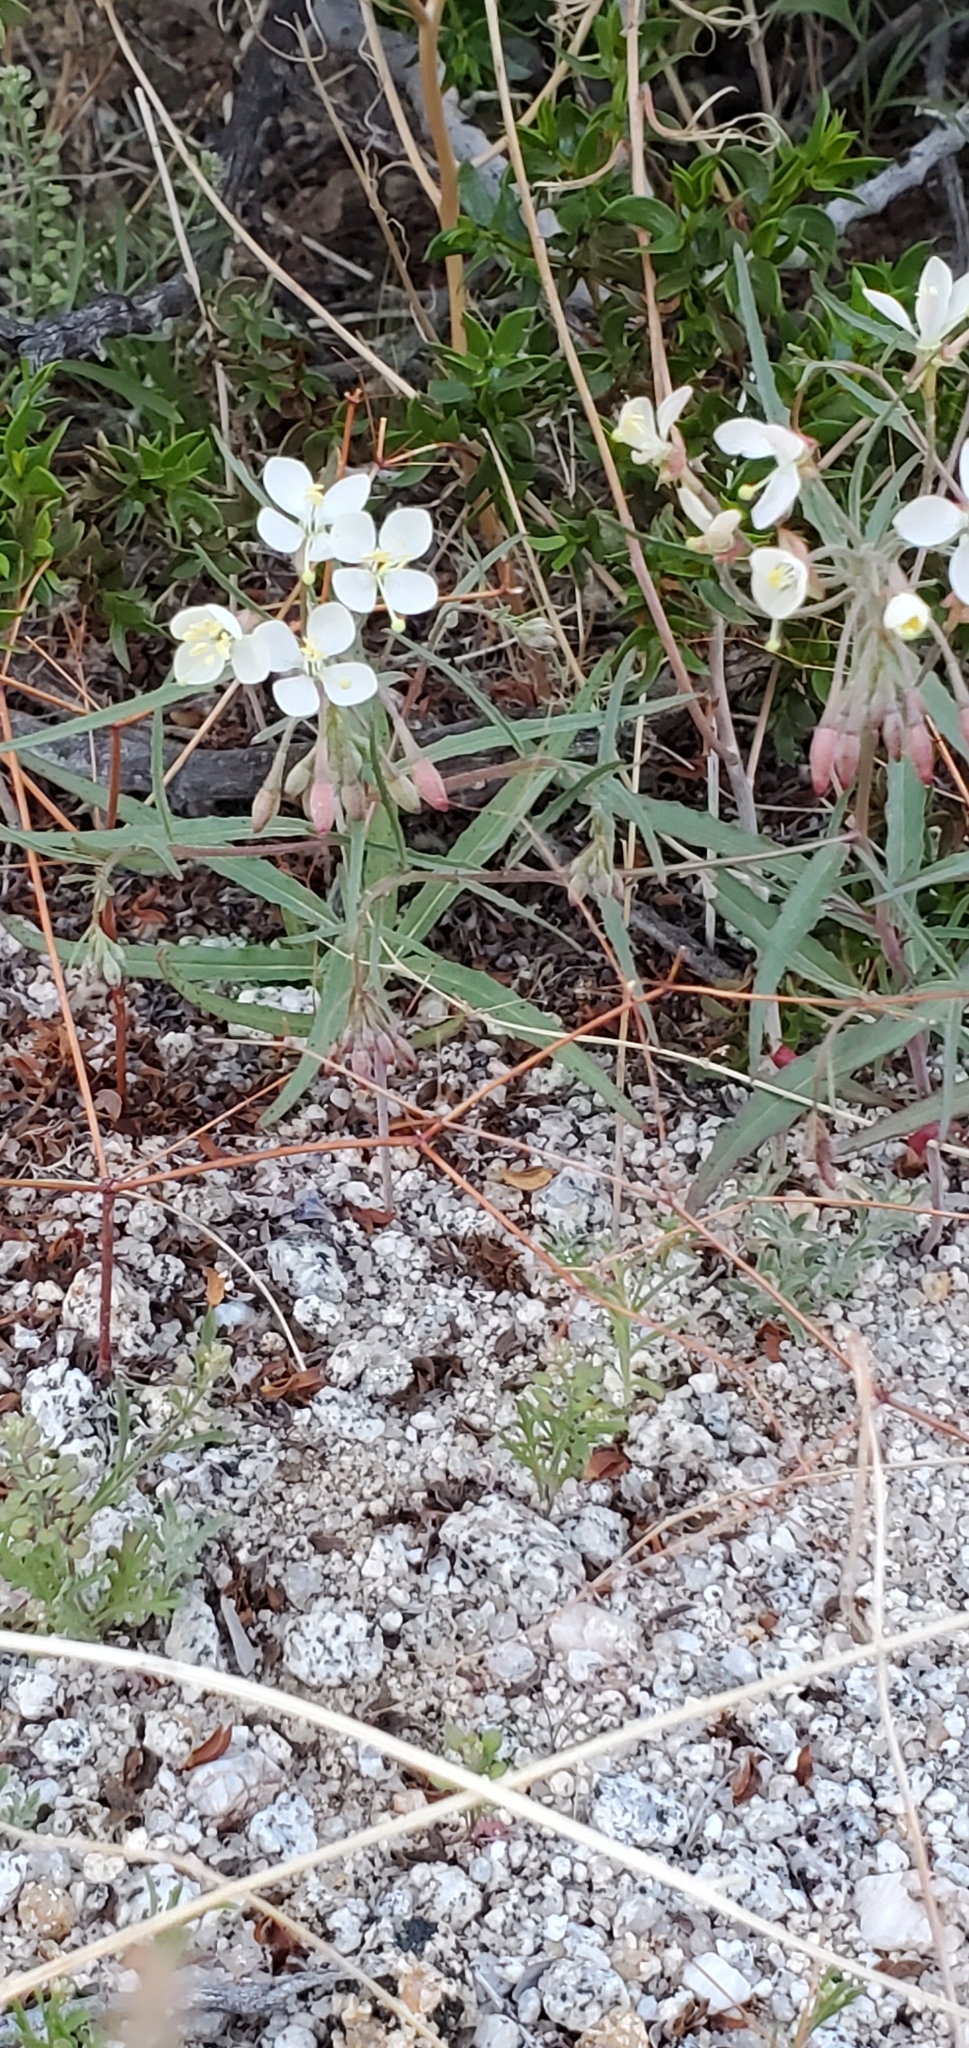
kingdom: Plantae
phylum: Tracheophyta
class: Magnoliopsida
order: Myrtales
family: Onagraceae
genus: Eremothera
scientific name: Eremothera refracta
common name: Narrowleaf suncup
